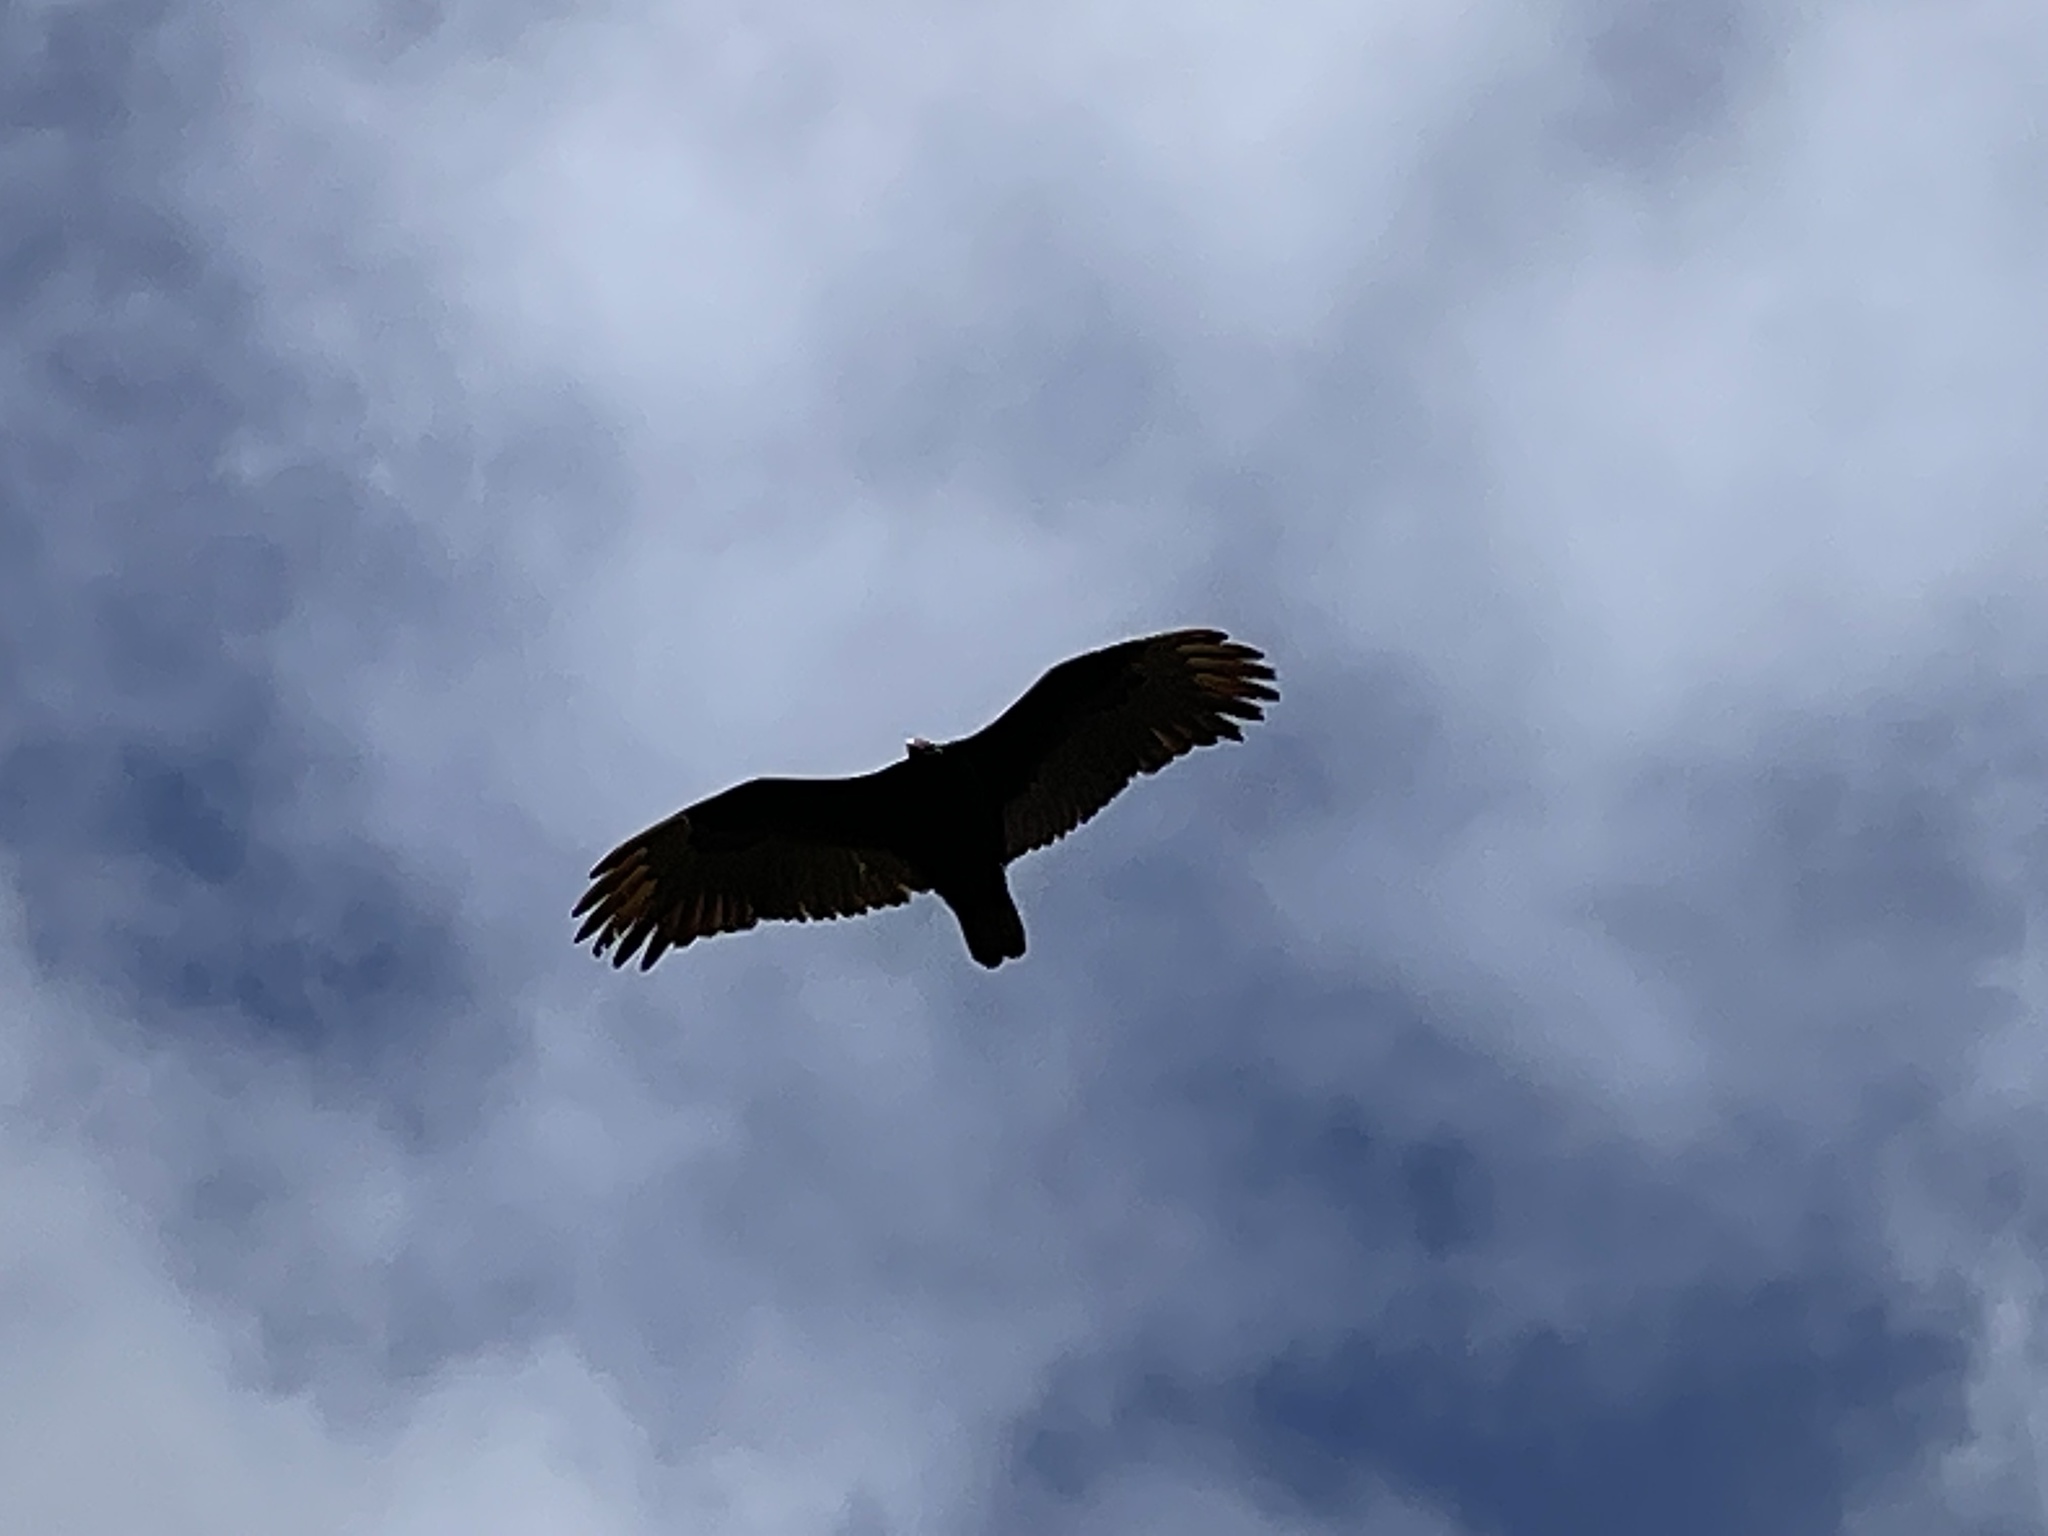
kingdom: Animalia
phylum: Chordata
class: Aves
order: Accipitriformes
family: Cathartidae
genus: Cathartes
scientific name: Cathartes aura
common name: Turkey vulture
